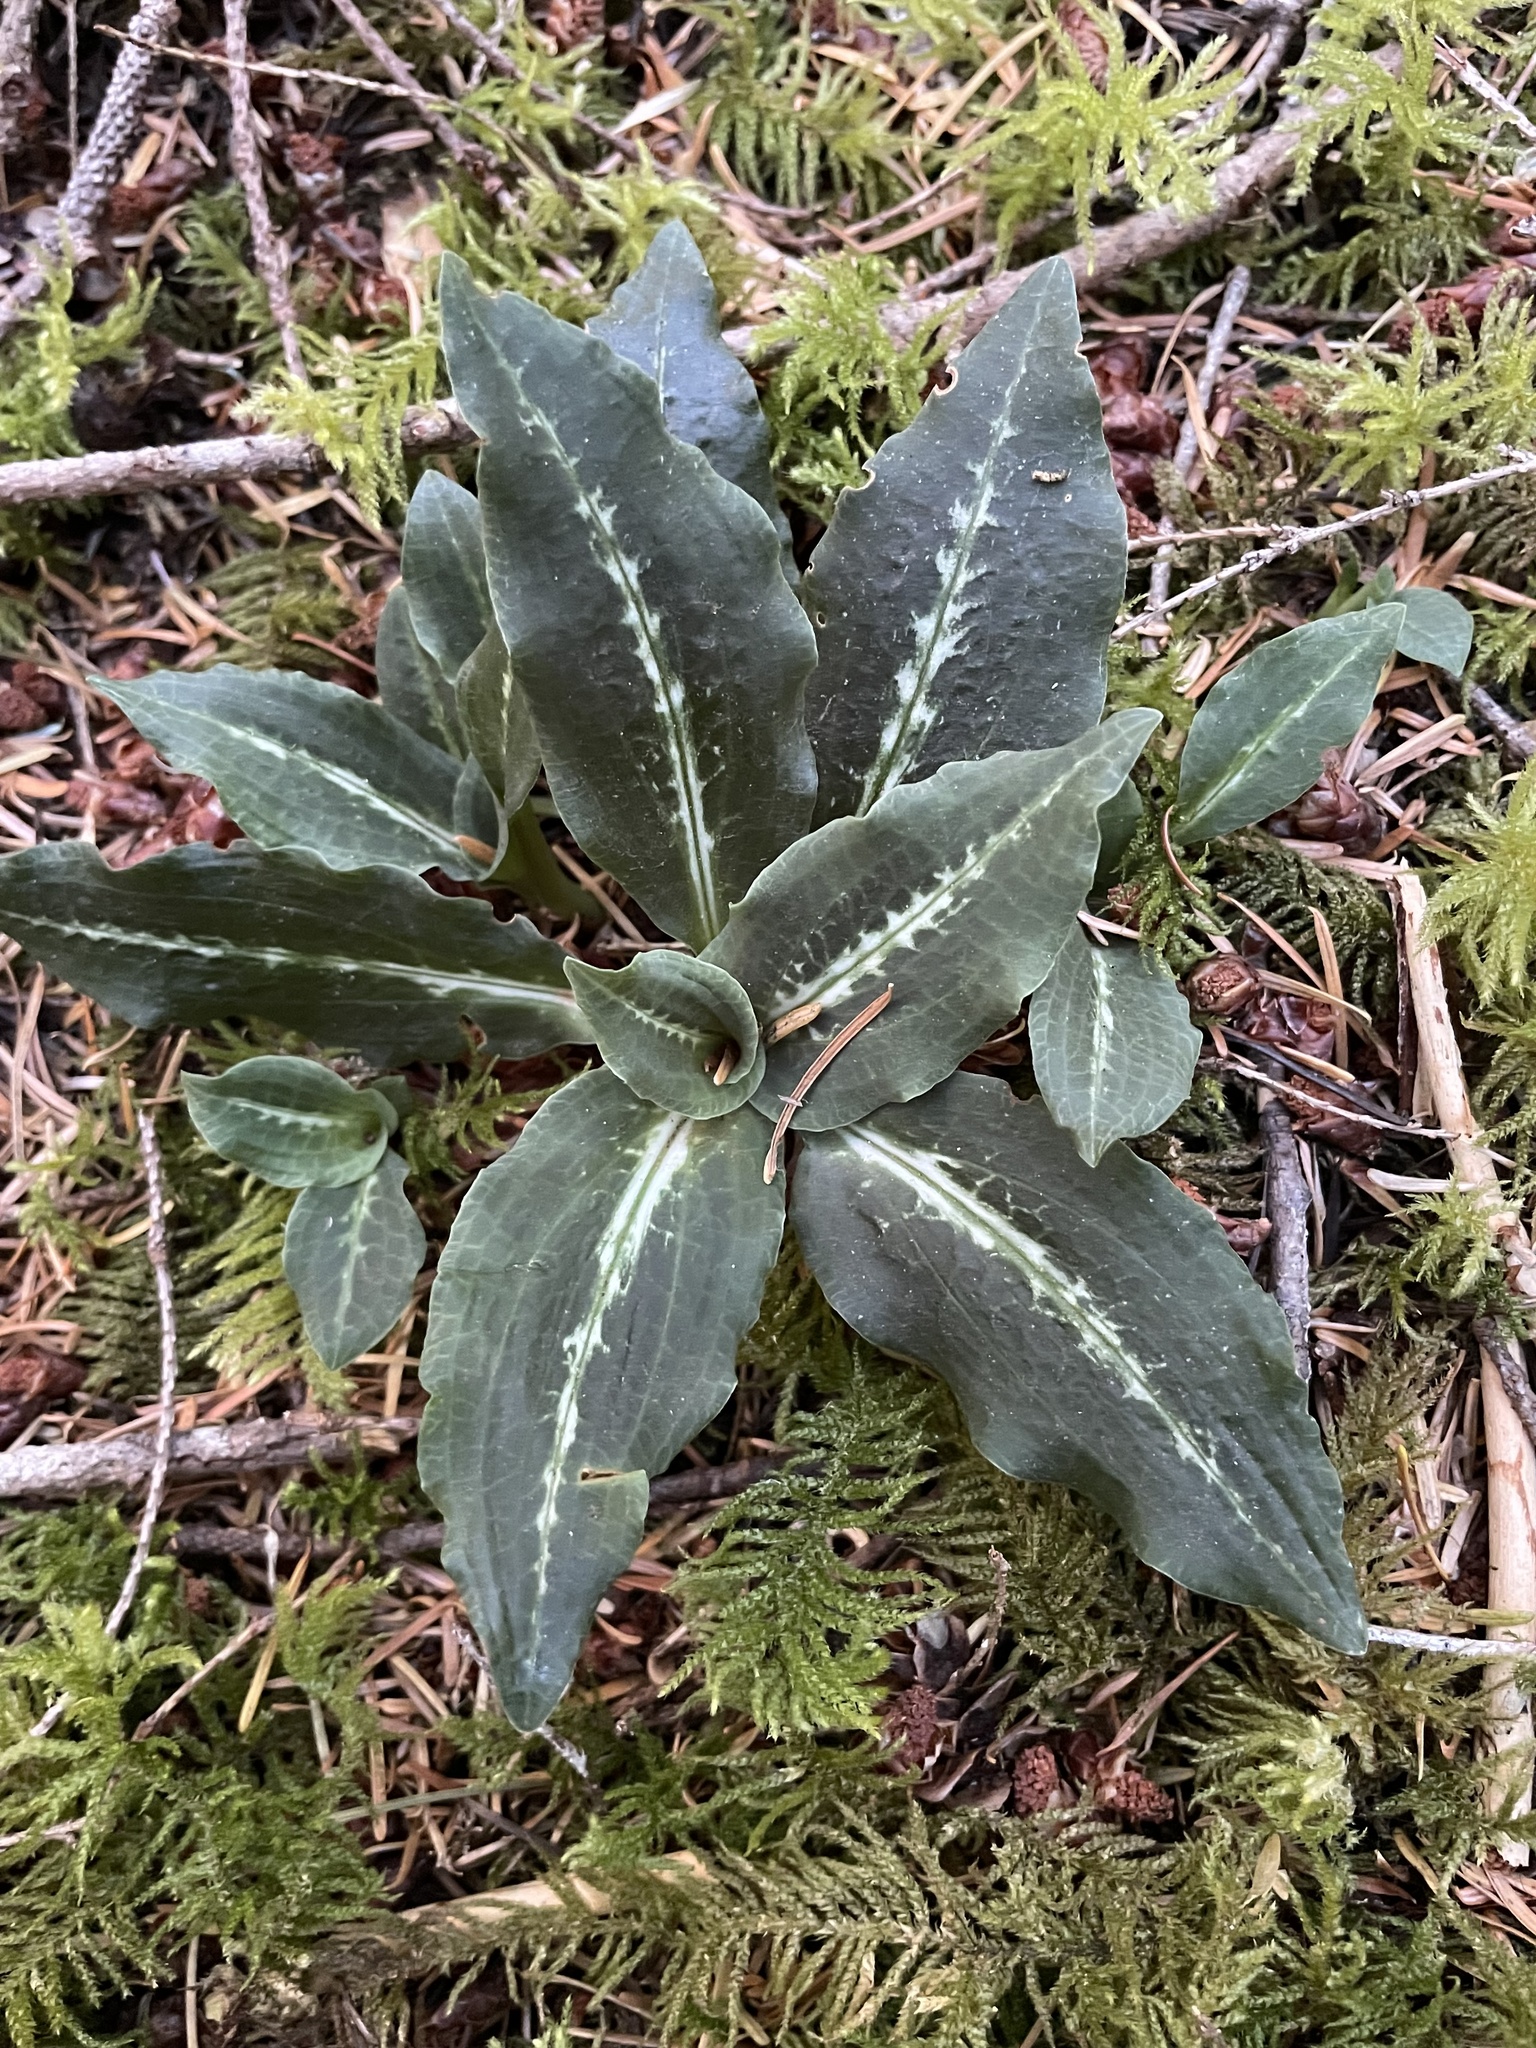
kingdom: Plantae
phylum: Tracheophyta
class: Liliopsida
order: Asparagales
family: Orchidaceae
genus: Goodyera
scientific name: Goodyera oblongifolia
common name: Giant rattlesnake-plantain
